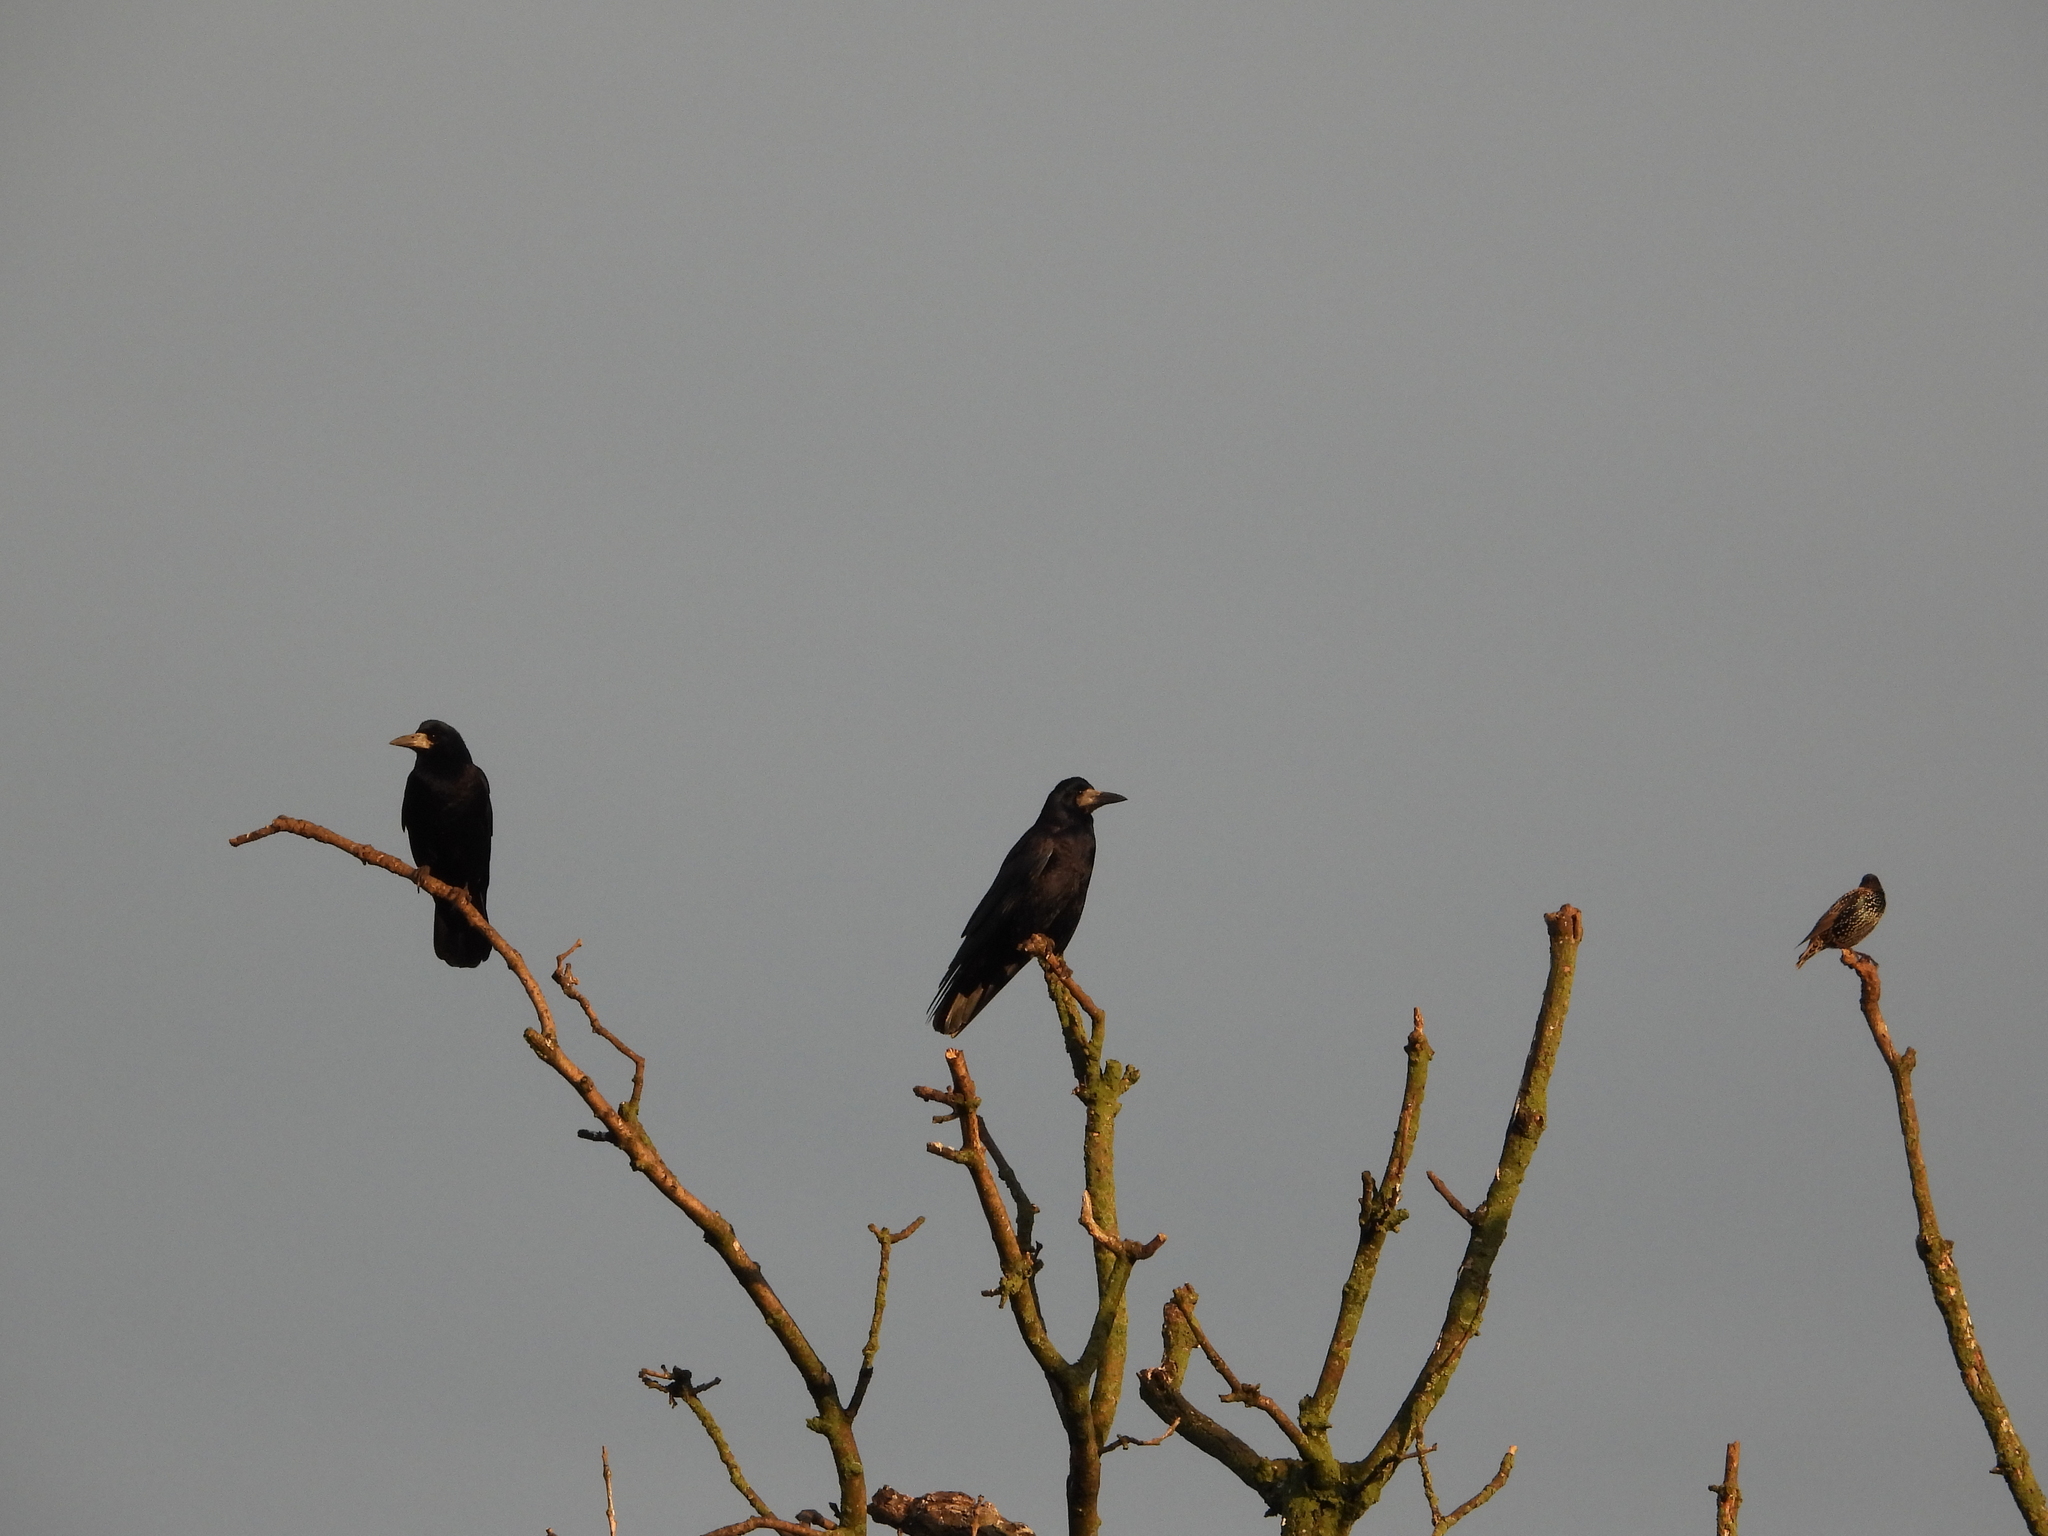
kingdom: Animalia
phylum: Chordata
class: Aves
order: Passeriformes
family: Corvidae
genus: Corvus
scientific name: Corvus frugilegus
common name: Rook
